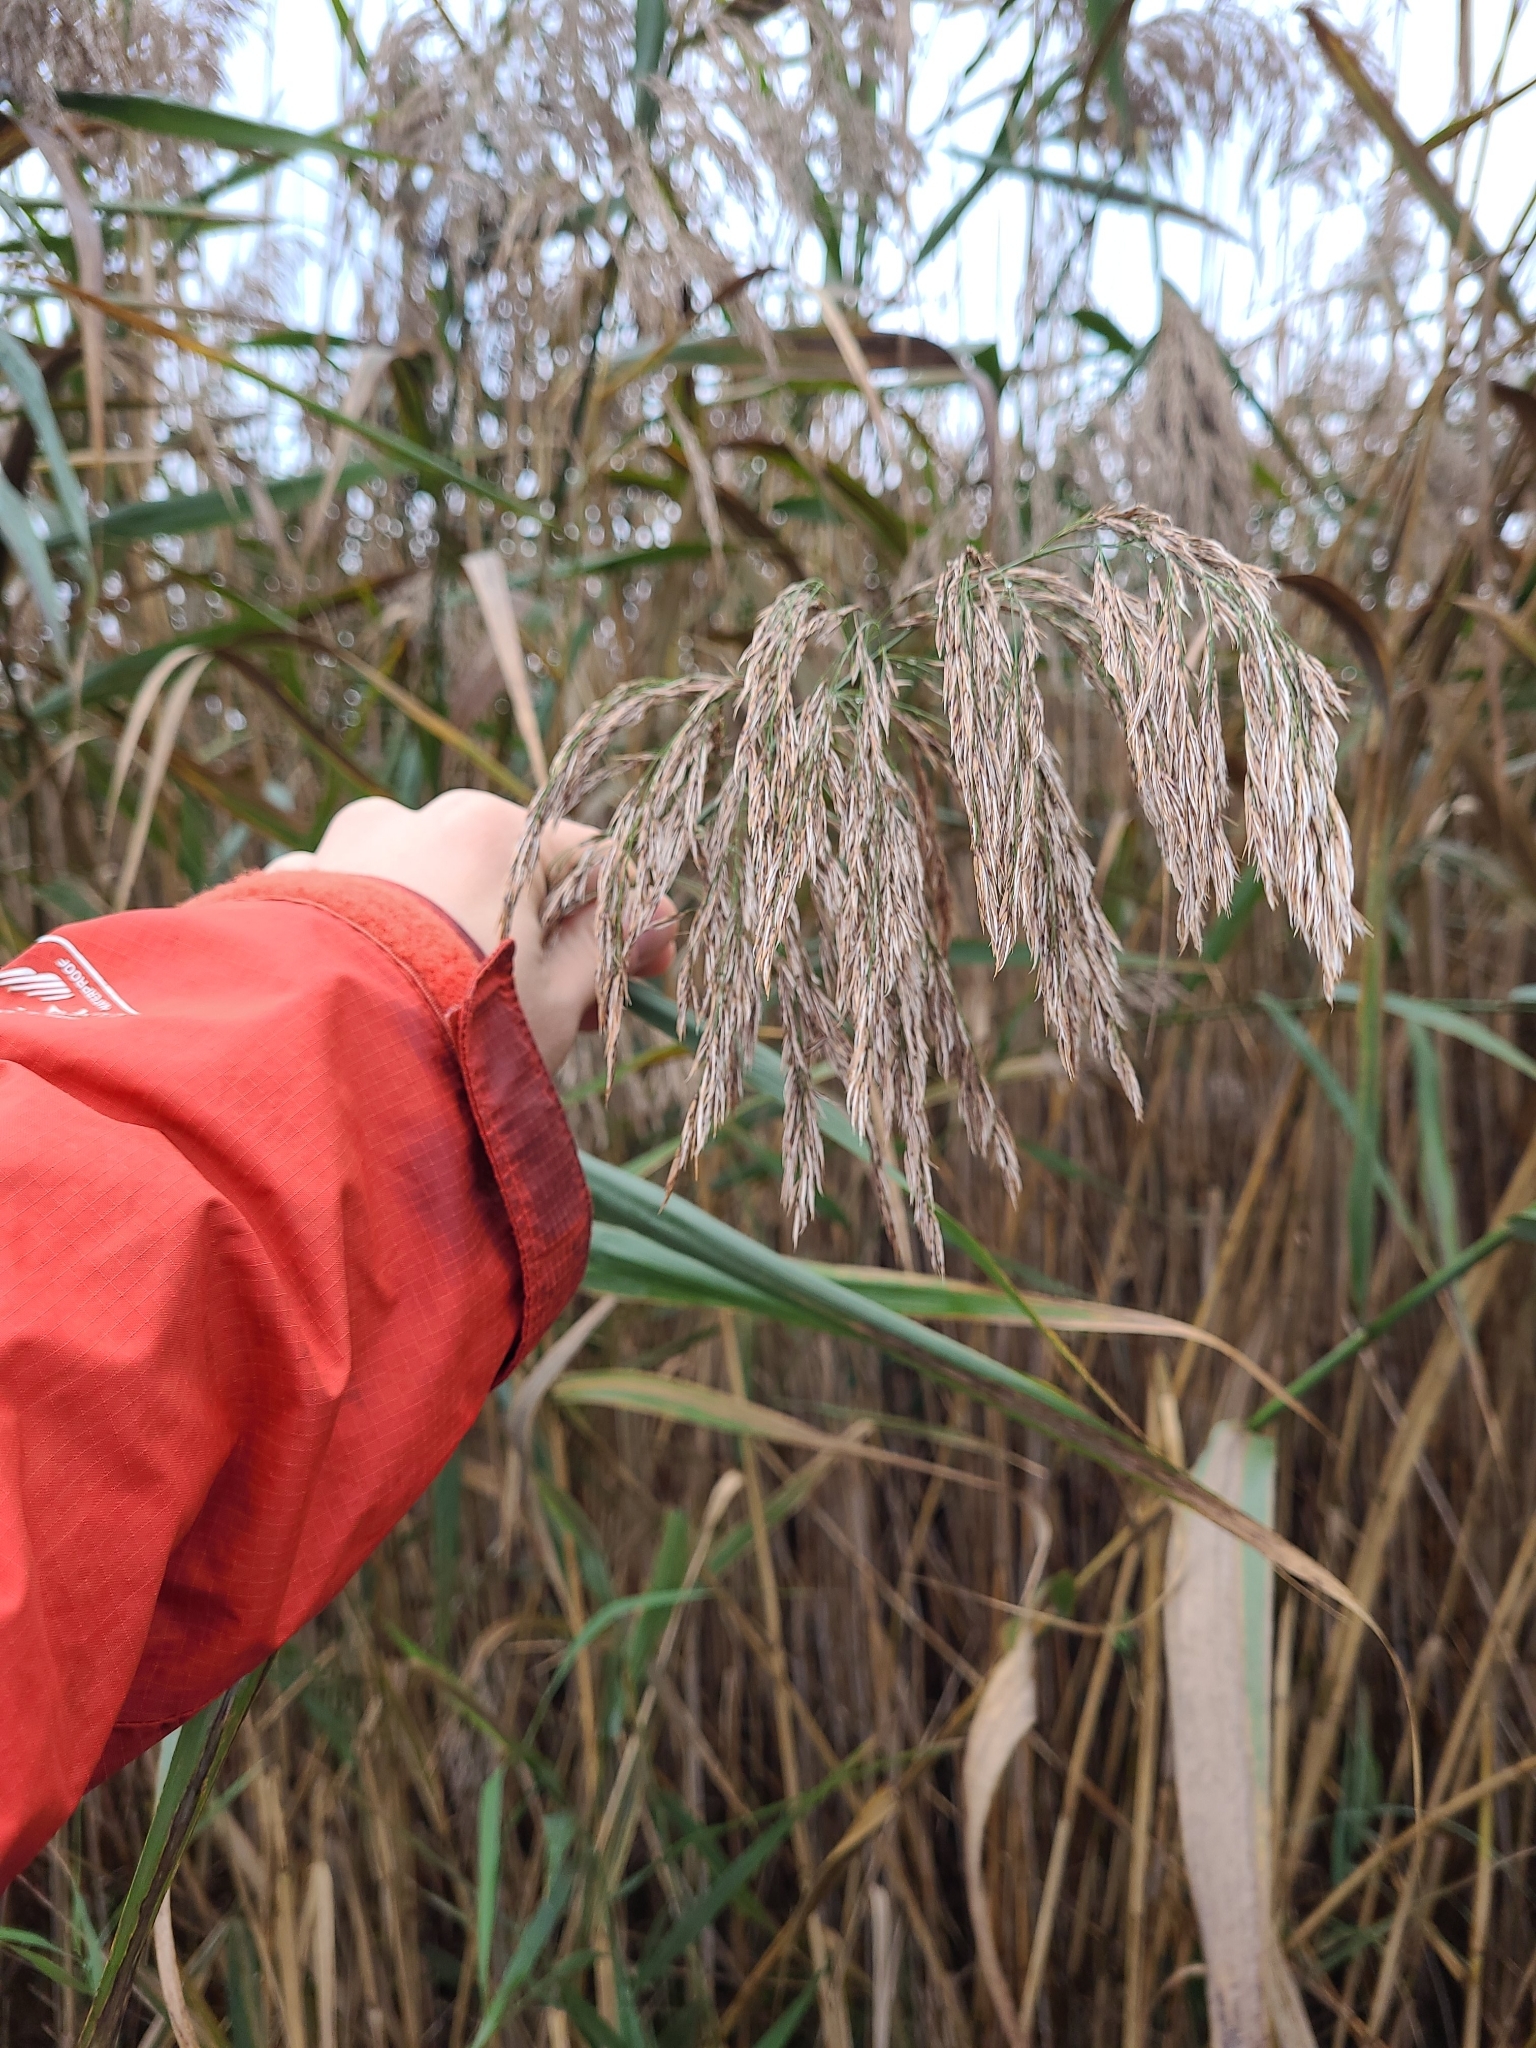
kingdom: Plantae
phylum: Tracheophyta
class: Liliopsida
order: Poales
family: Poaceae
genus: Phragmites
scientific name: Phragmites australis
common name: Common reed
